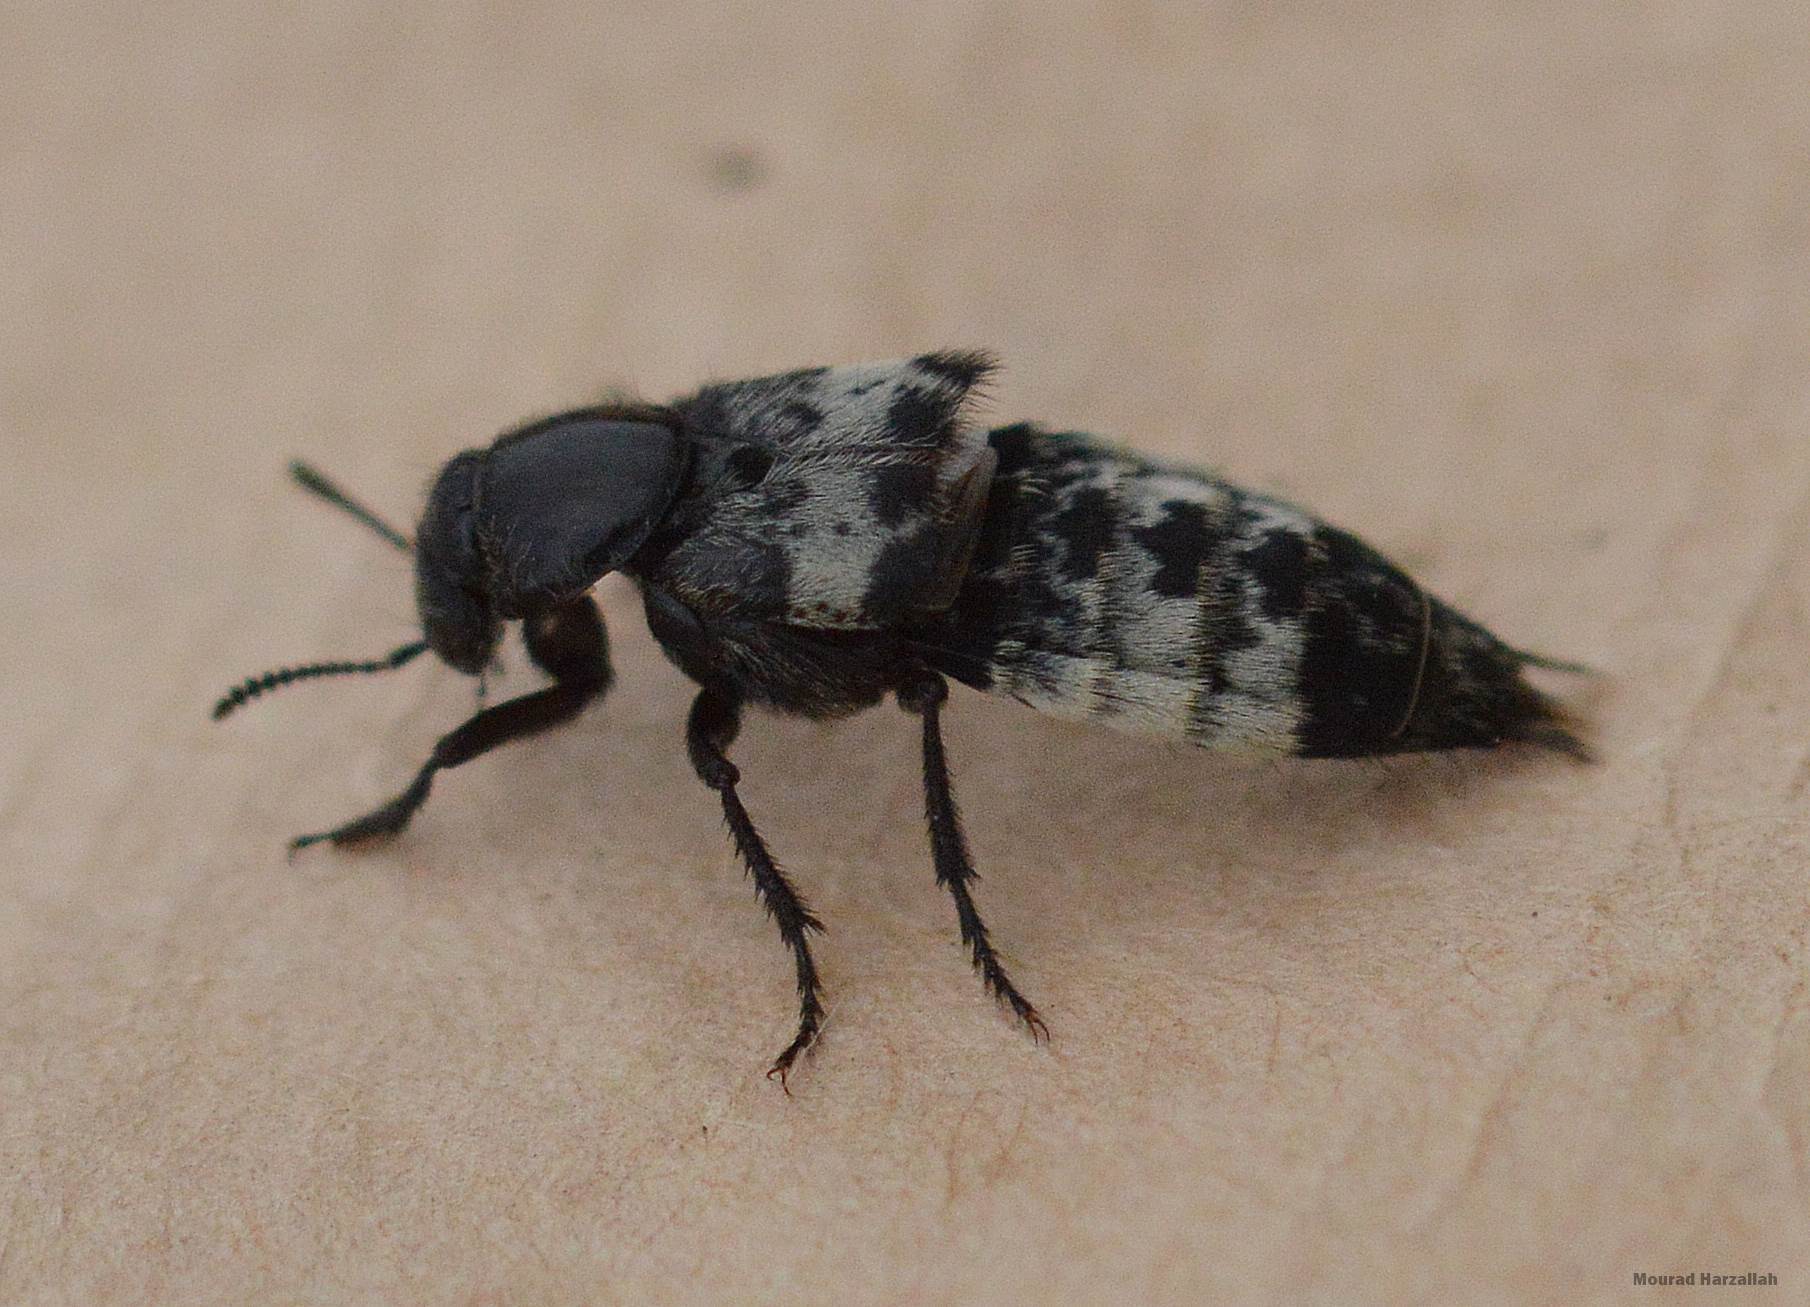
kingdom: Animalia
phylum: Arthropoda
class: Insecta
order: Coleoptera
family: Staphylinidae
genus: Creophilus
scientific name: Creophilus maxillosus
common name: Hairy rove beetle
